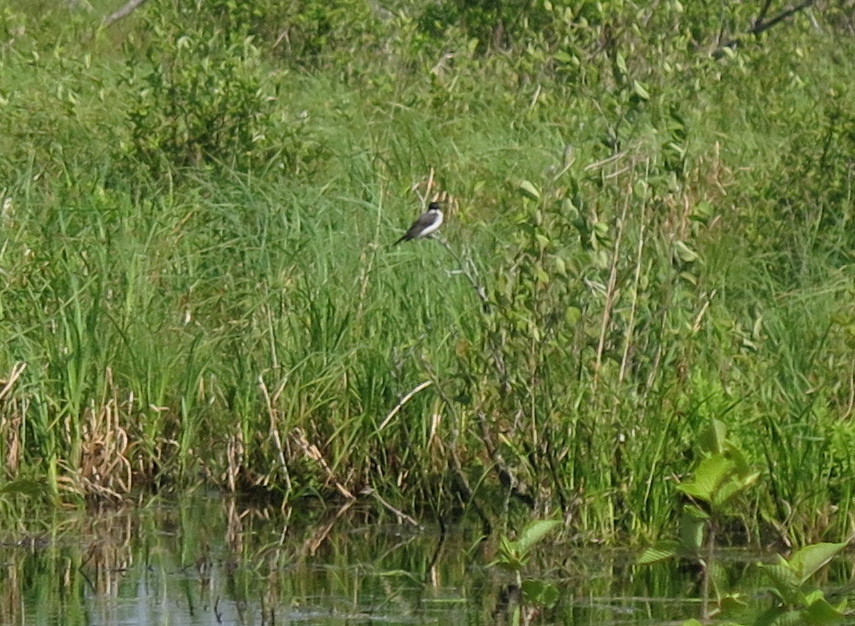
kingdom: Animalia
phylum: Chordata
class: Aves
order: Passeriformes
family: Tyrannidae
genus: Tyrannus
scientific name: Tyrannus tyrannus
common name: Eastern kingbird
